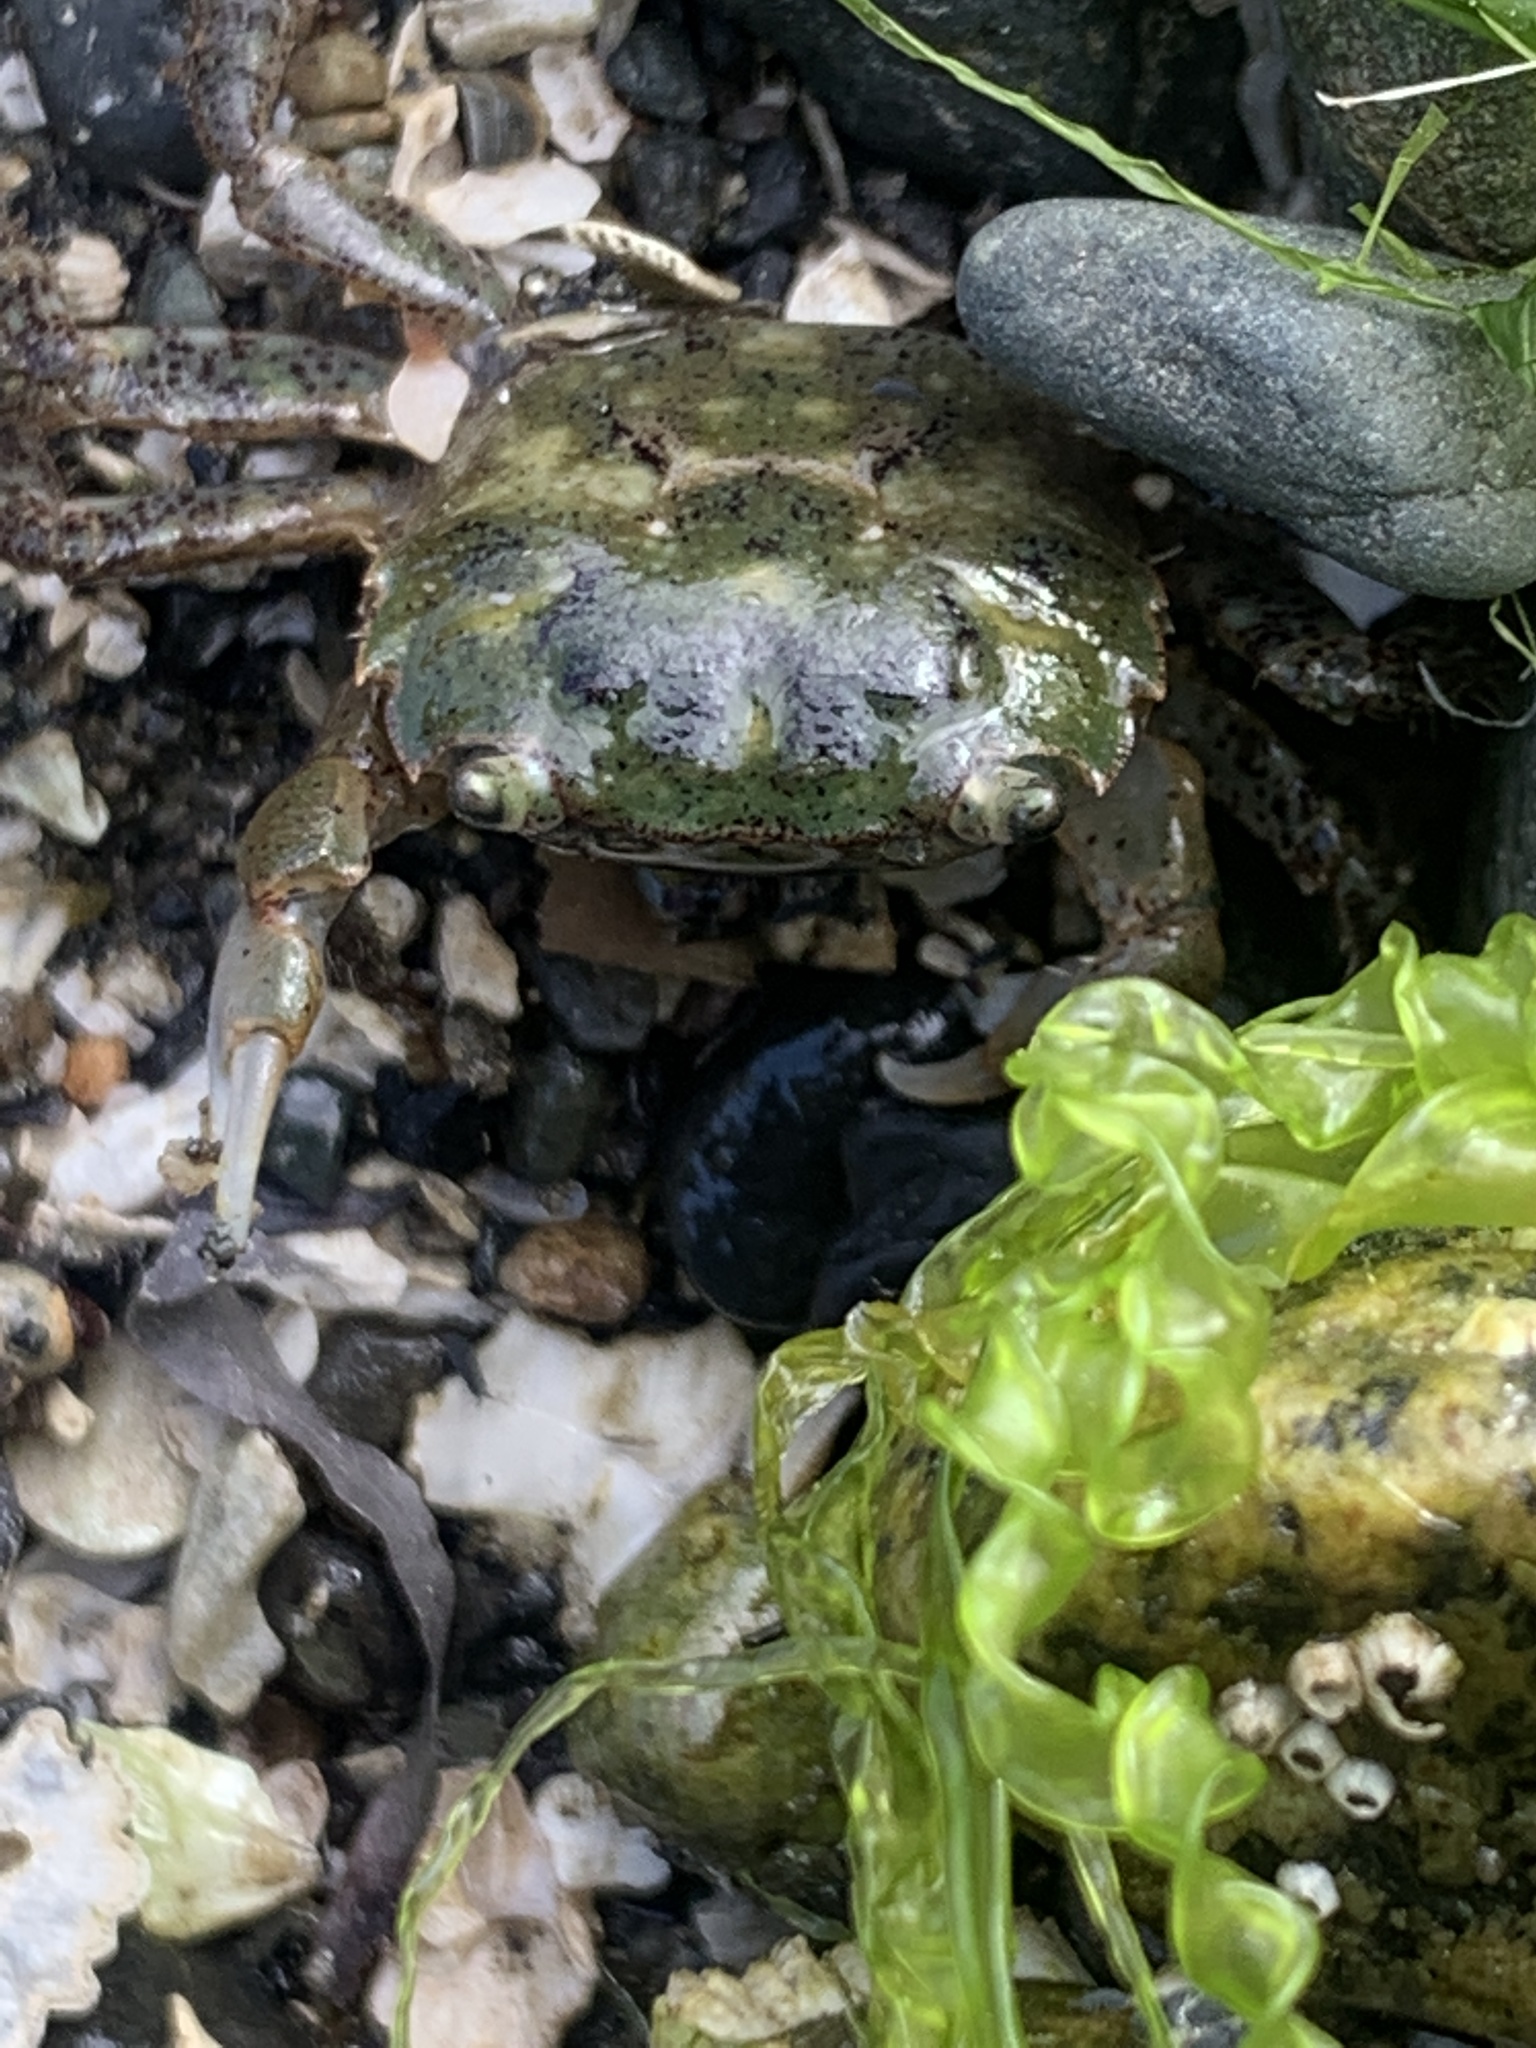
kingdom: Animalia
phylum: Arthropoda
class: Malacostraca
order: Decapoda
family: Varunidae
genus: Hemigrapsus
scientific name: Hemigrapsus oregonensis
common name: Yellow shore crab
